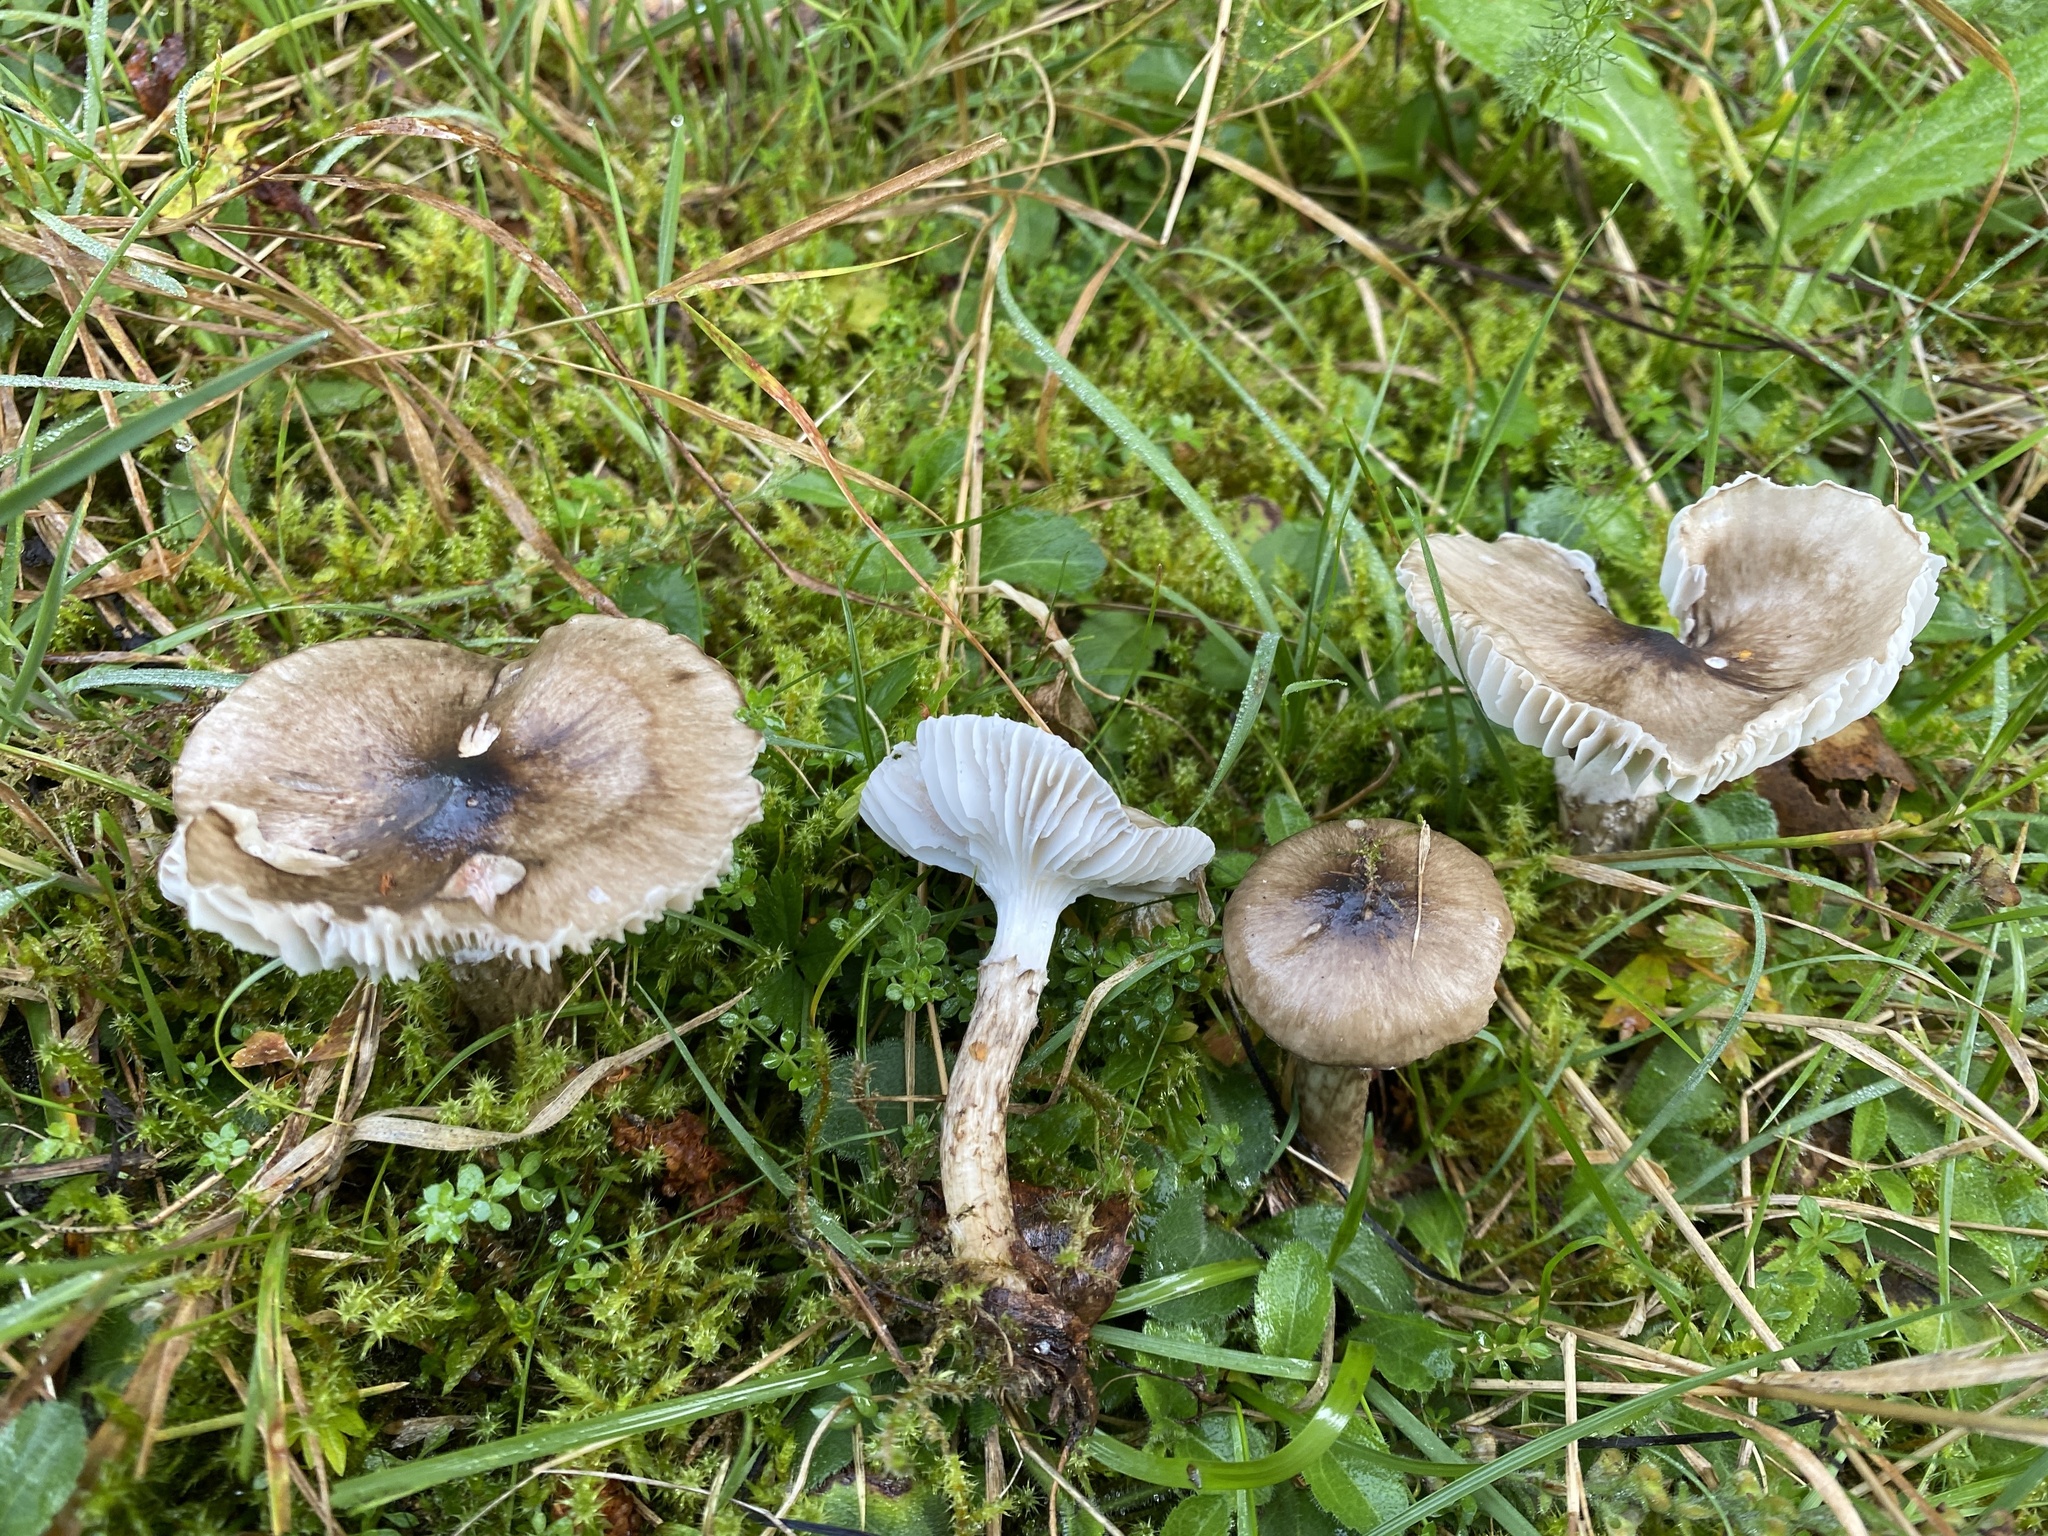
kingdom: Fungi
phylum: Basidiomycota
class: Agaricomycetes
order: Agaricales
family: Hygrophoraceae
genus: Hygrophorus
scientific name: Hygrophorus olivaceoalbus
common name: Olive wax cap
